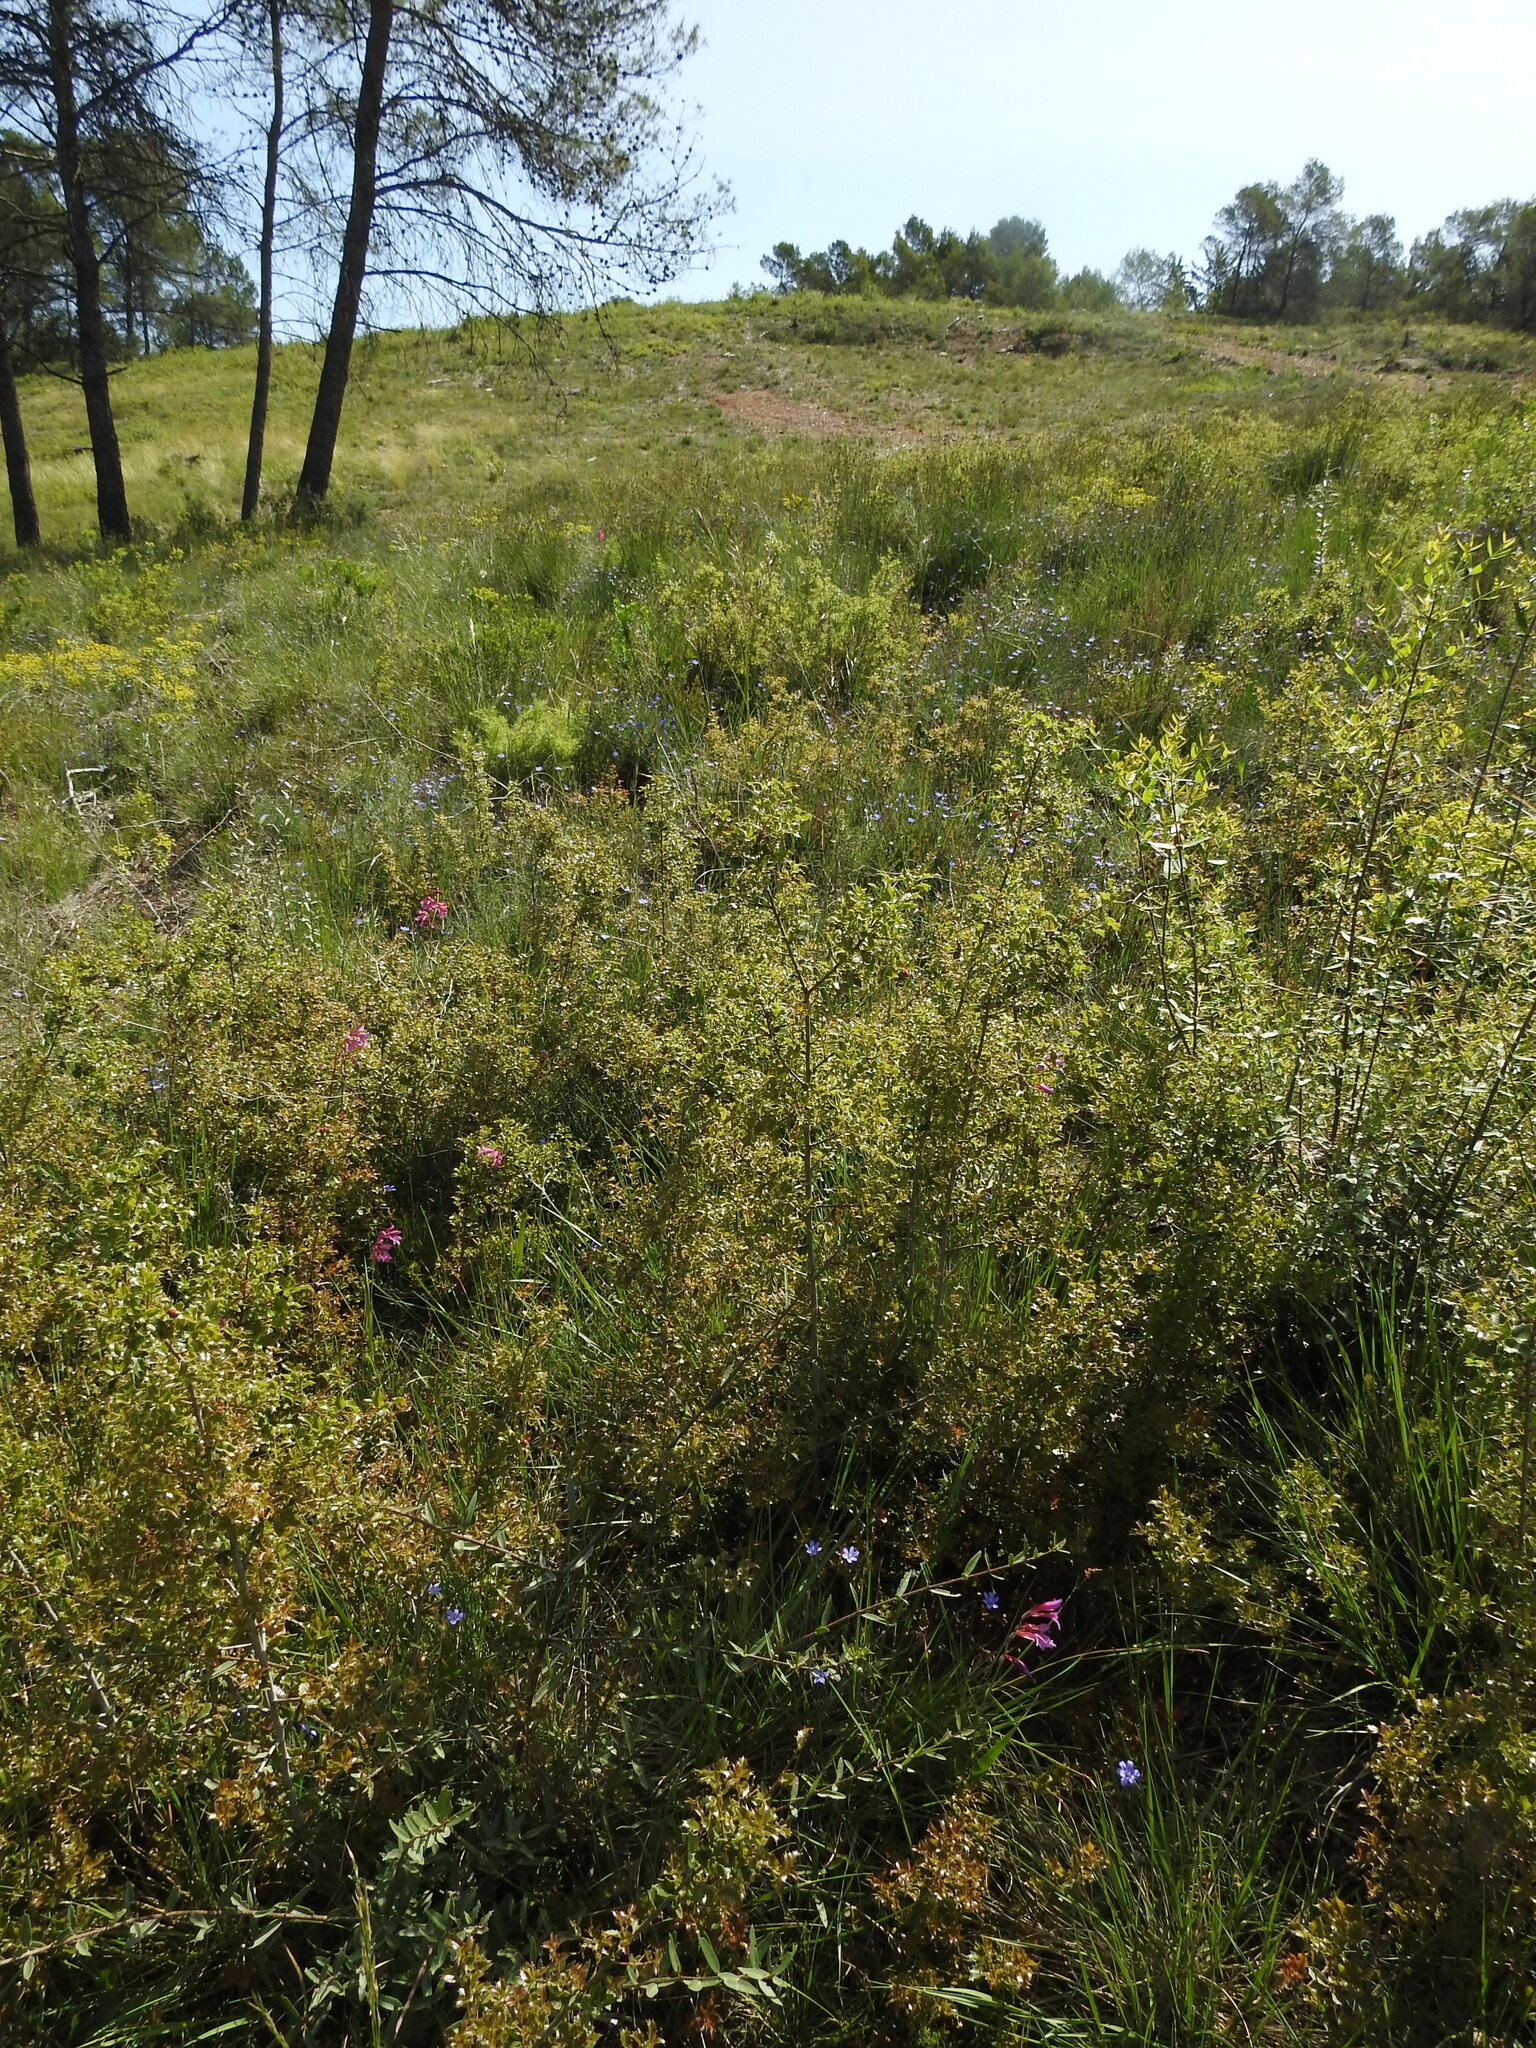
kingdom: Plantae
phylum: Tracheophyta
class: Liliopsida
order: Asparagales
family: Iridaceae
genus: Gladiolus
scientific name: Gladiolus dubius
